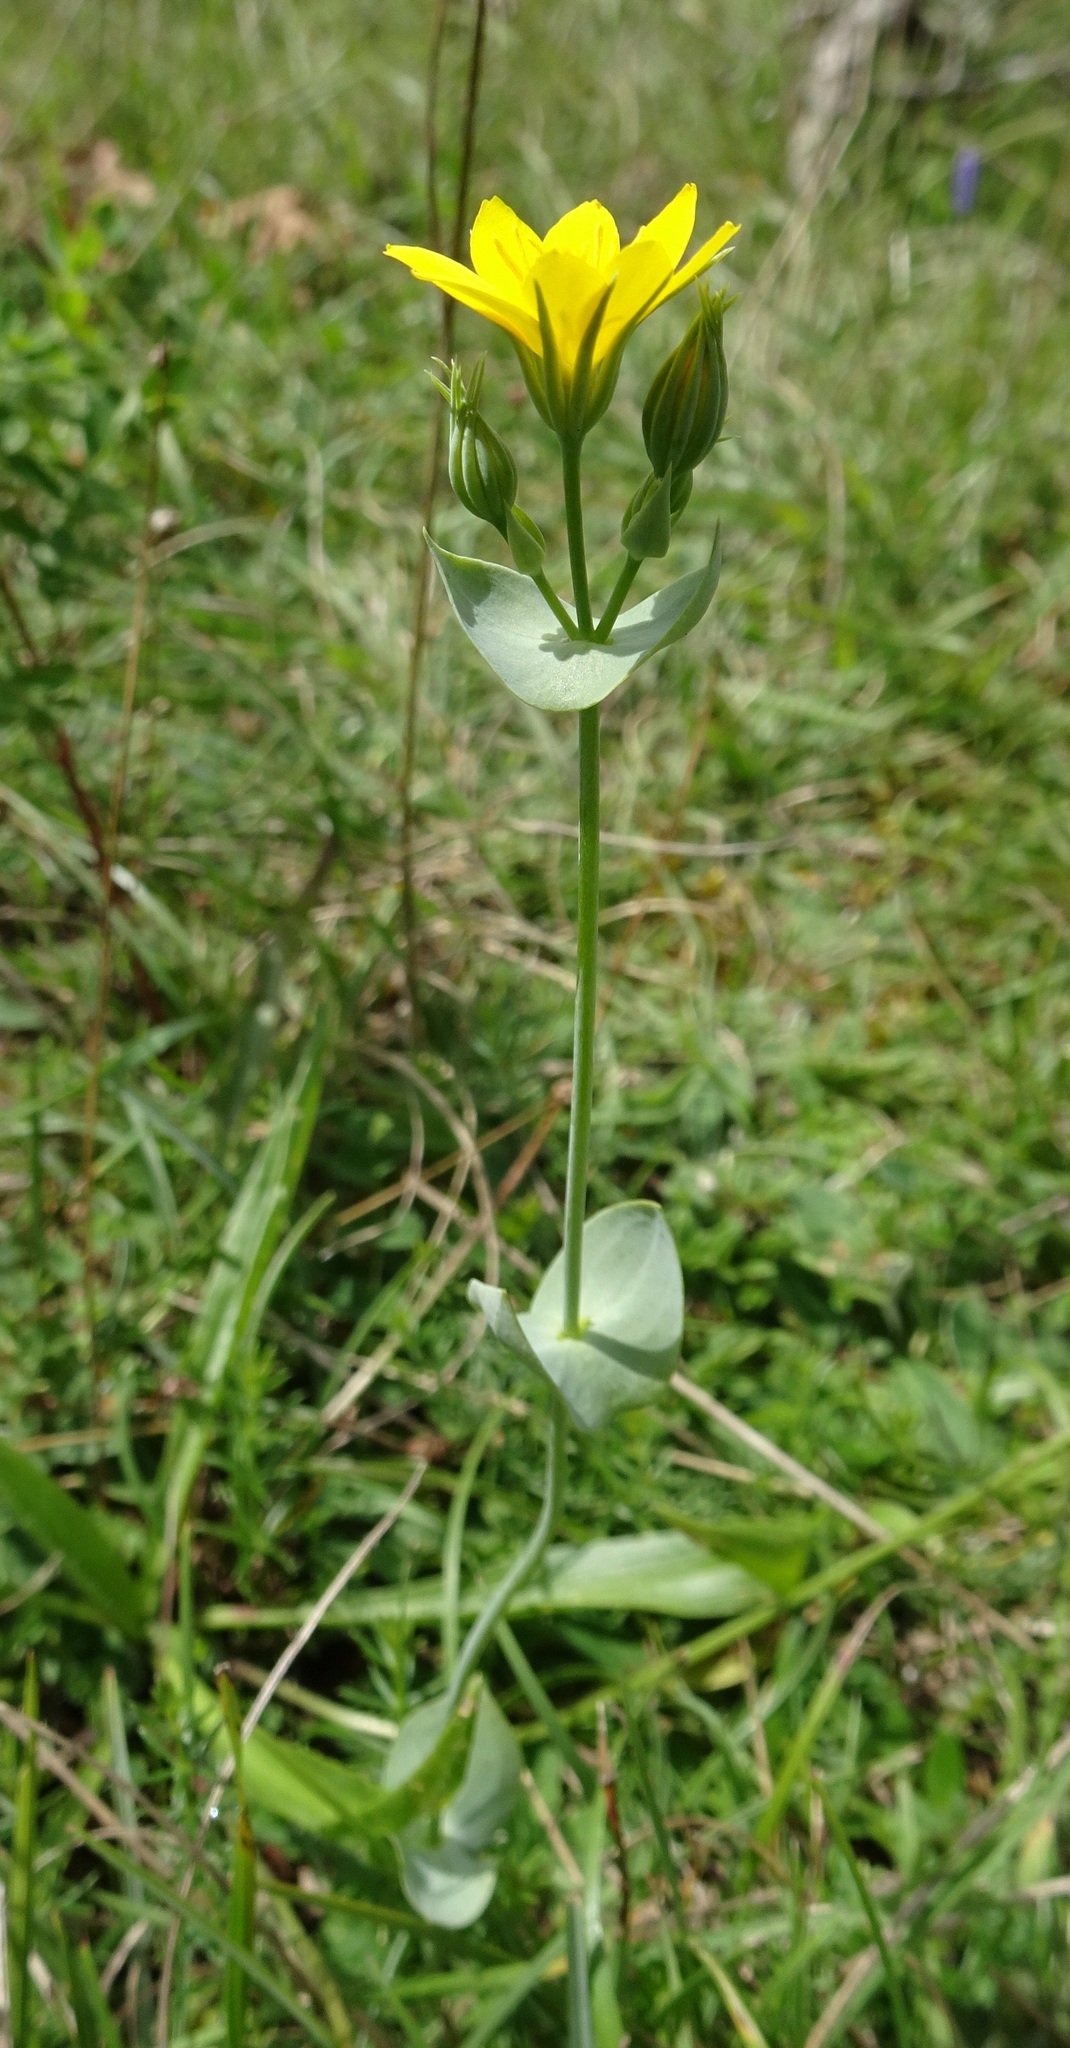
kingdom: Plantae
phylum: Tracheophyta
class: Magnoliopsida
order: Gentianales
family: Gentianaceae
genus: Blackstonia
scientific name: Blackstonia perfoliata
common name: Yellow-wort
